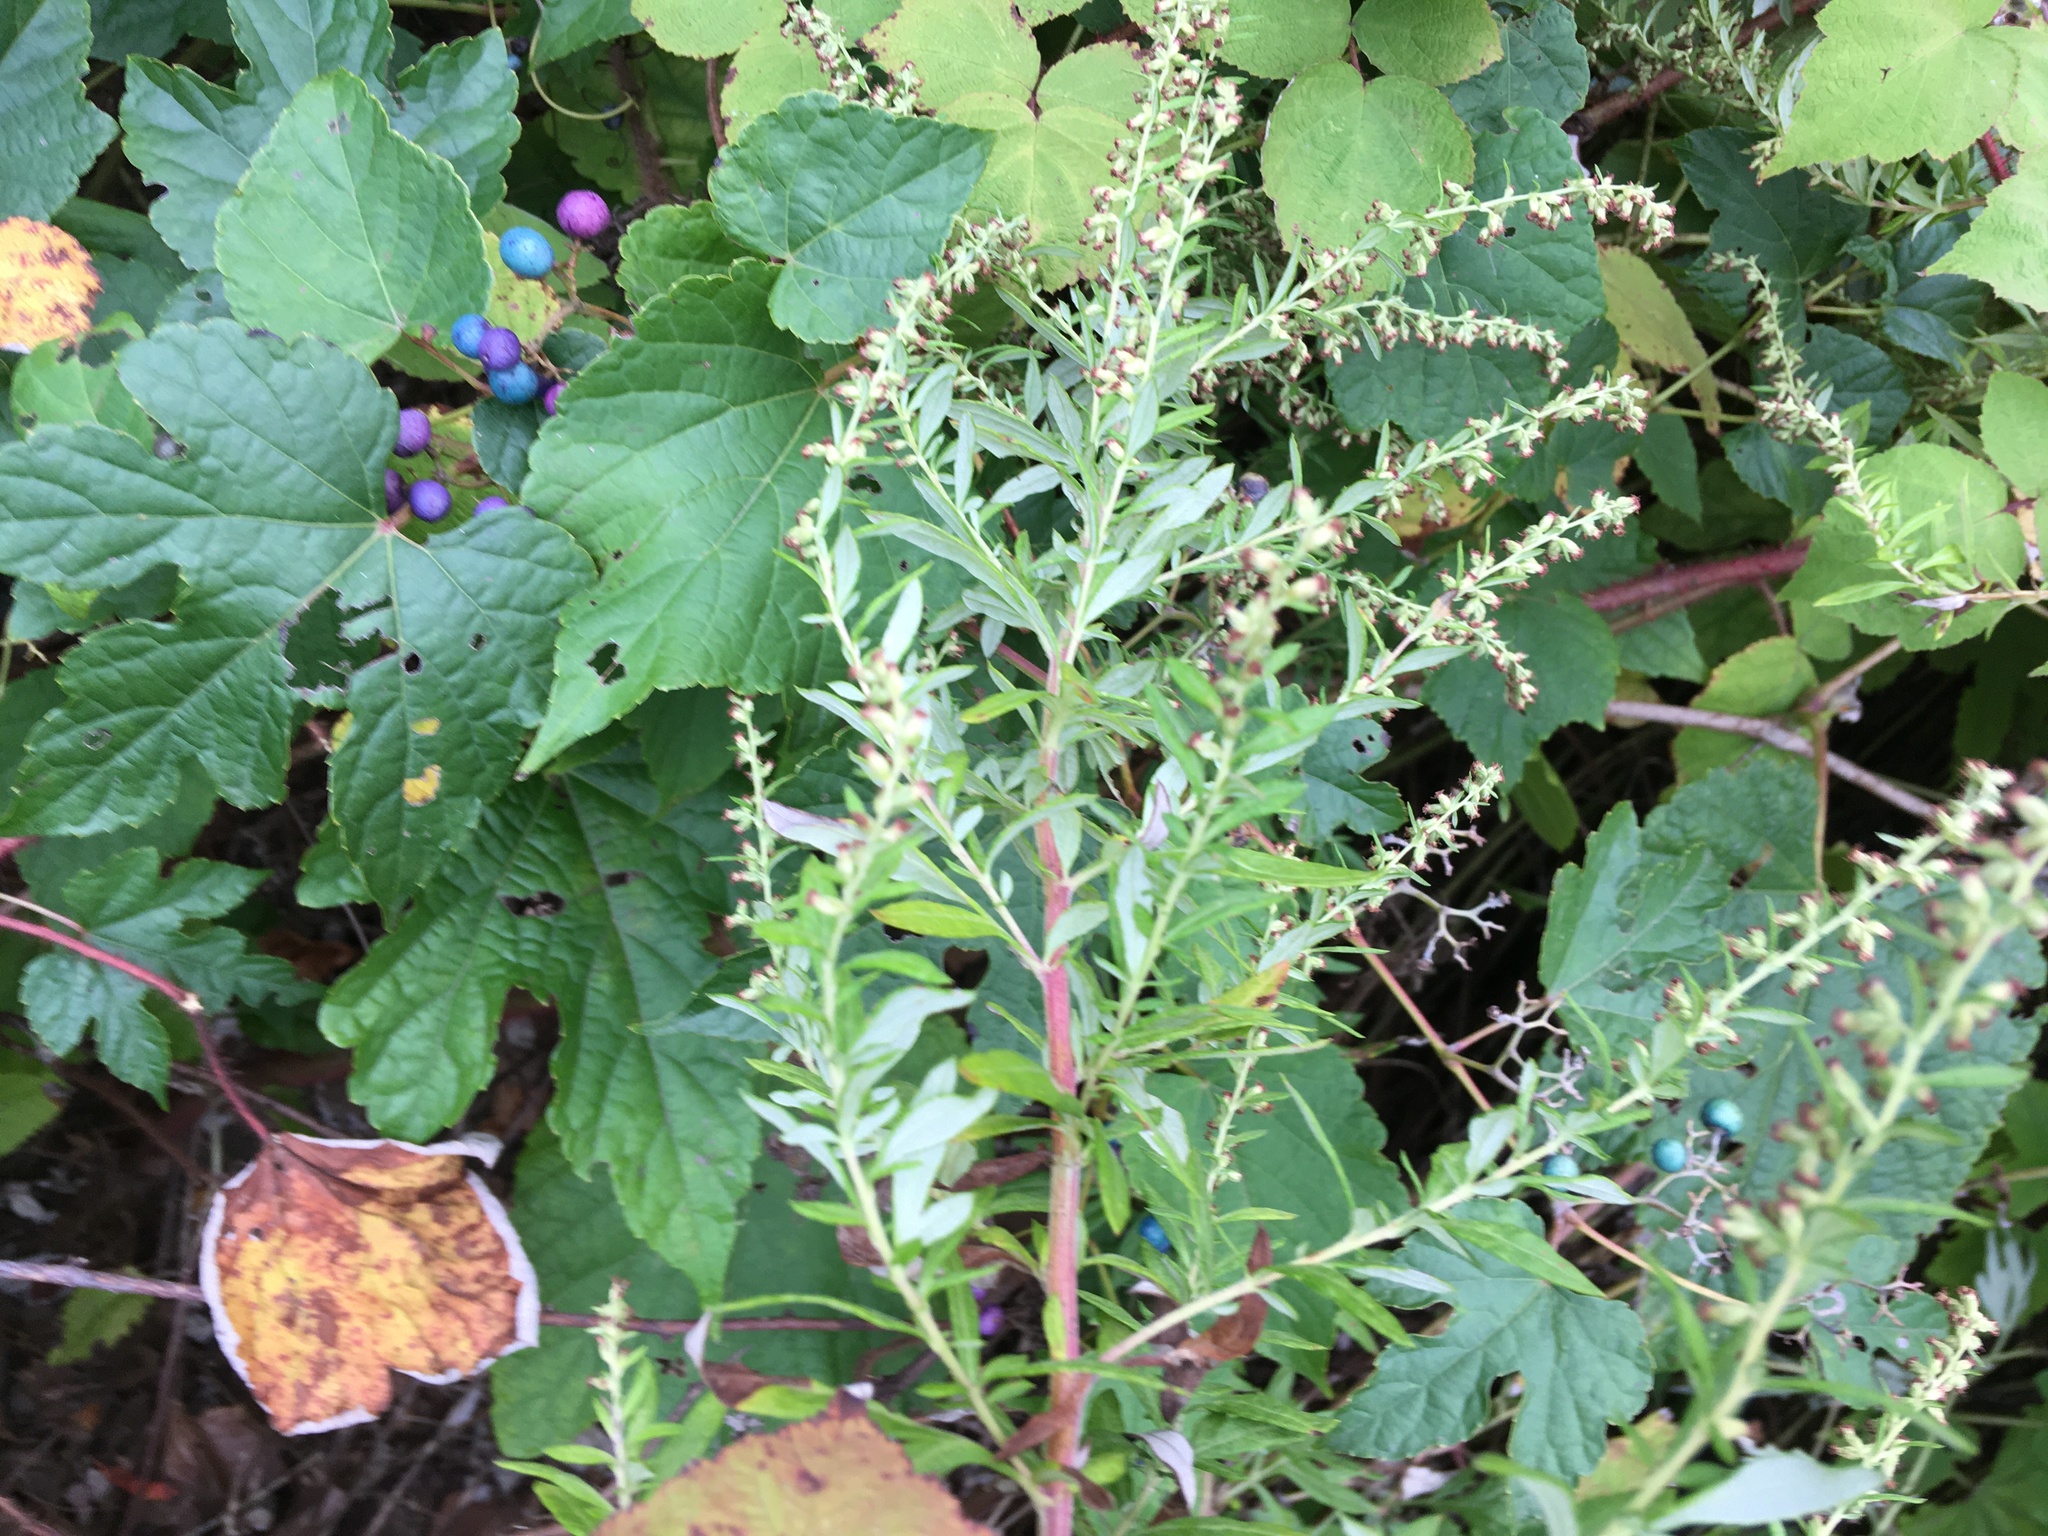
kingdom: Plantae
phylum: Tracheophyta
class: Magnoliopsida
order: Asterales
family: Asteraceae
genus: Artemisia
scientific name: Artemisia vulgaris
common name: Mugwort
